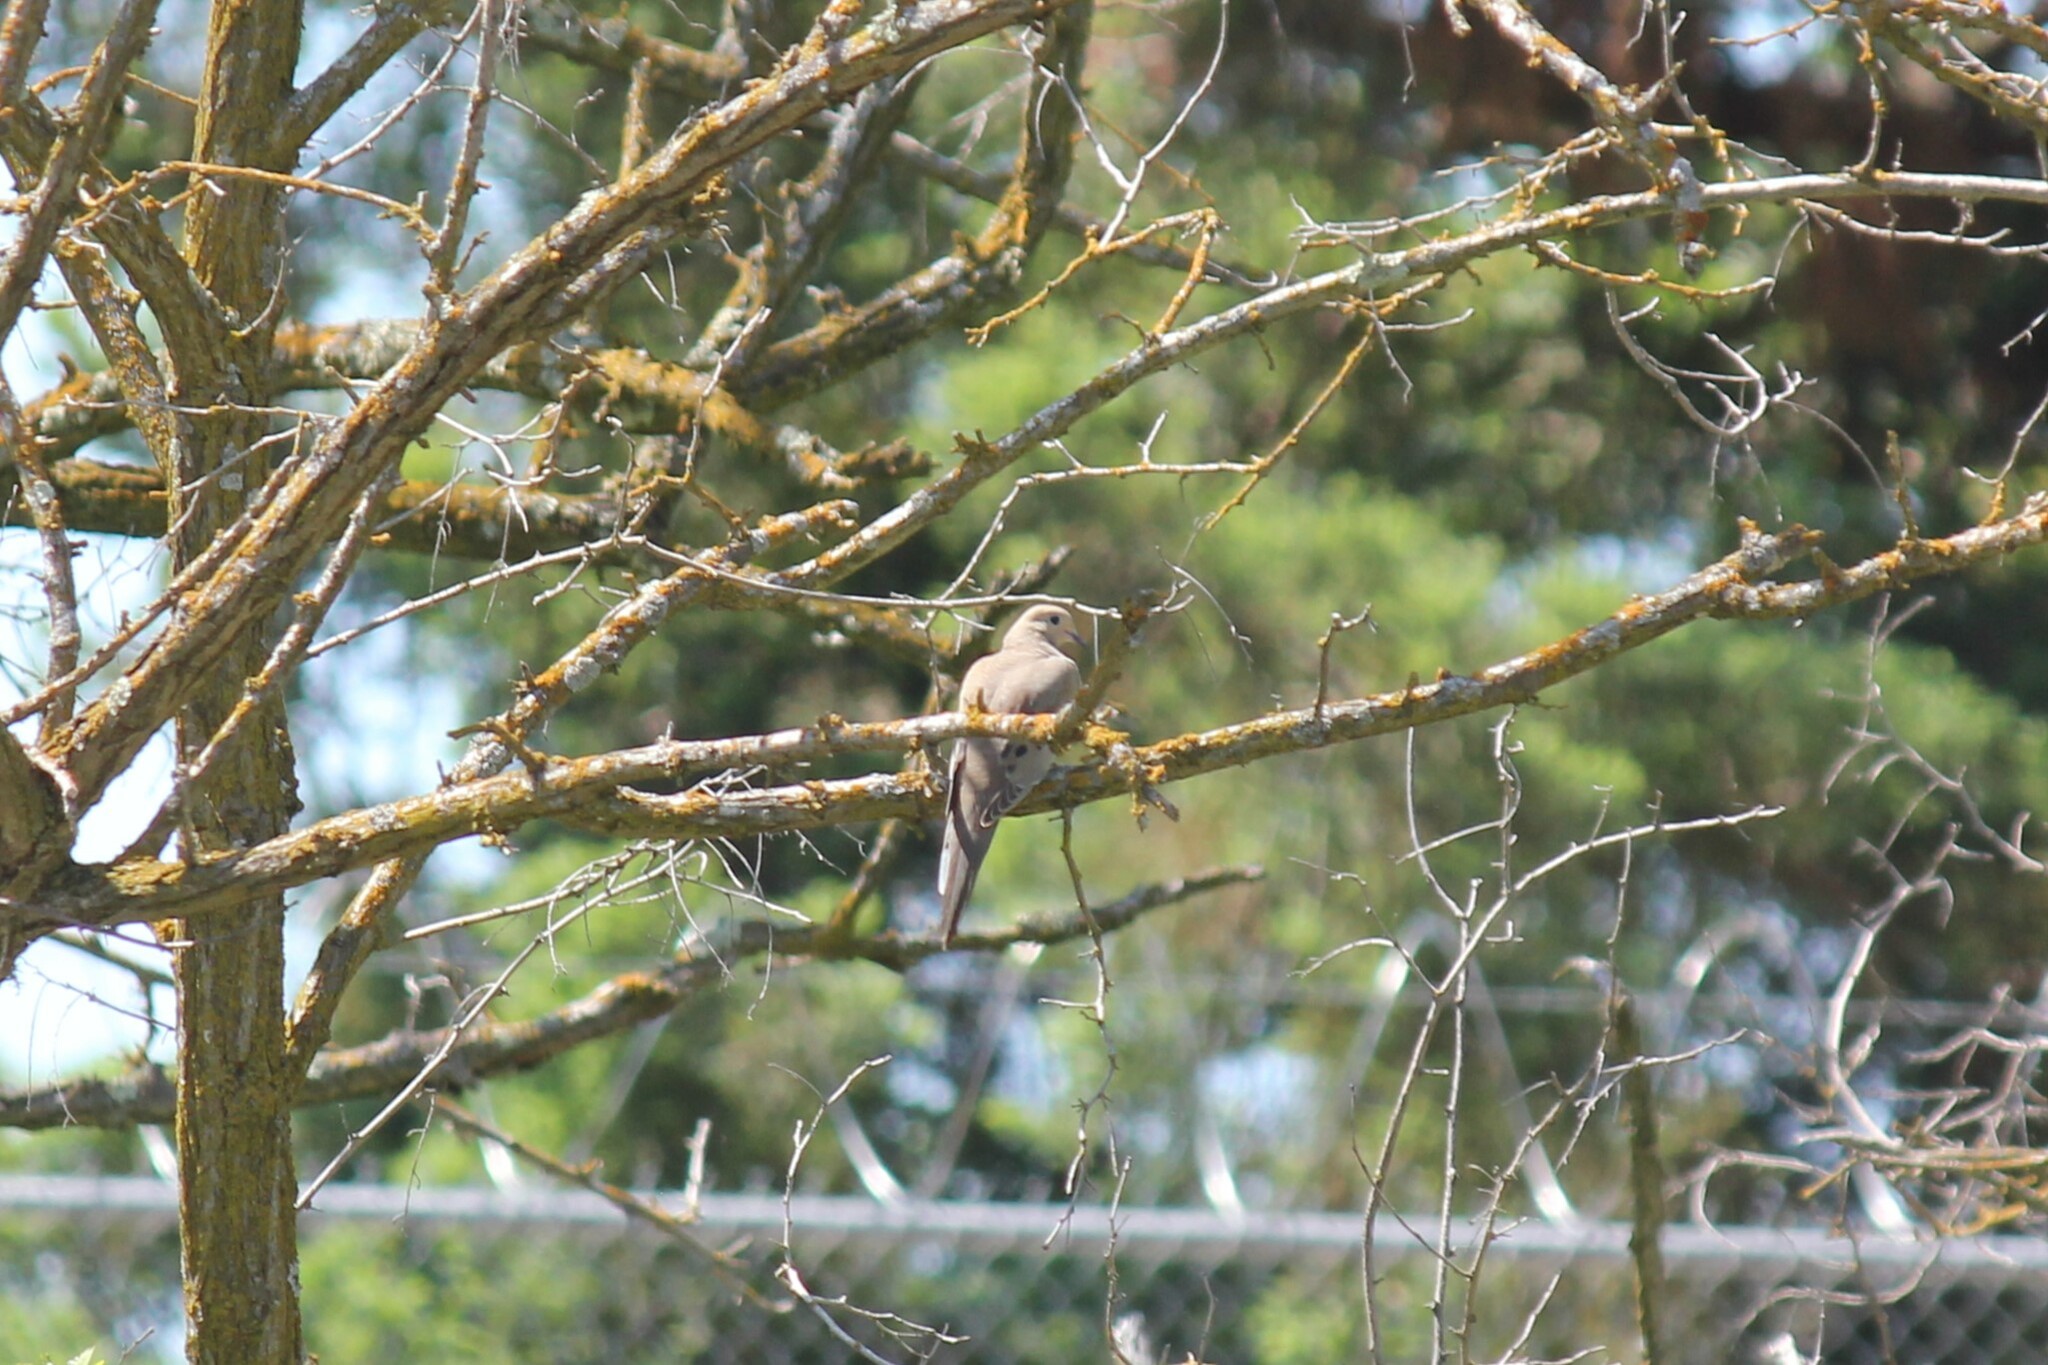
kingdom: Animalia
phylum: Chordata
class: Aves
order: Columbiformes
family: Columbidae
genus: Zenaida
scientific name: Zenaida macroura
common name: Mourning dove
